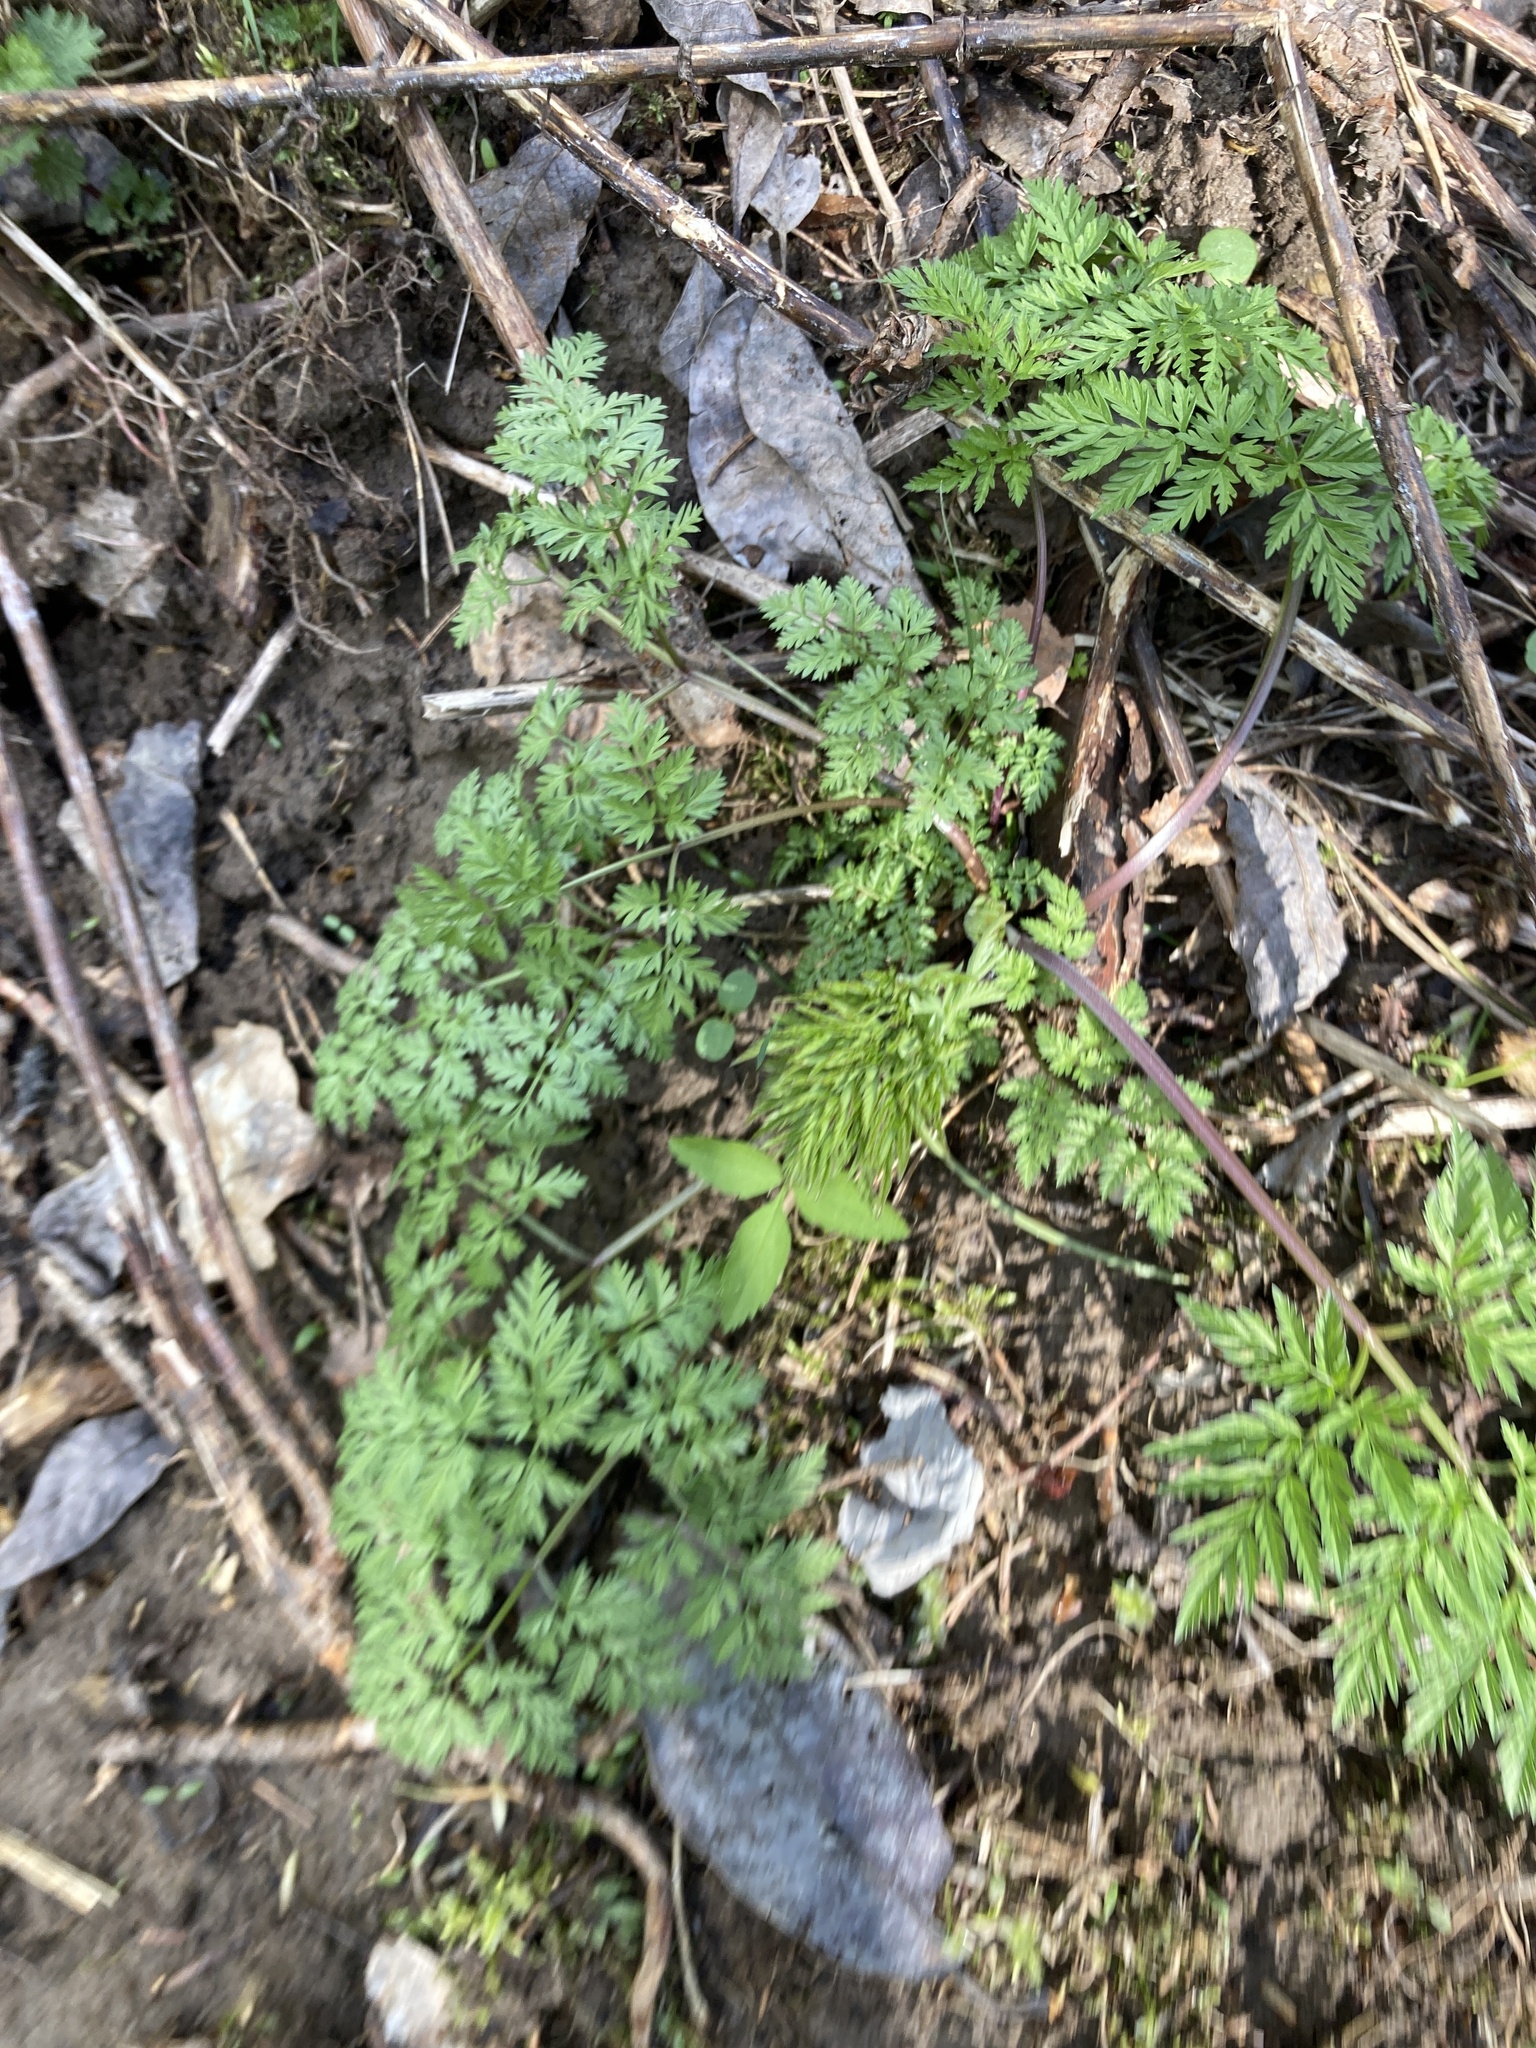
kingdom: Plantae
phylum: Tracheophyta
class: Magnoliopsida
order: Apiales
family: Apiaceae
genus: Anthriscus
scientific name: Anthriscus sylvestris
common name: Cow parsley
